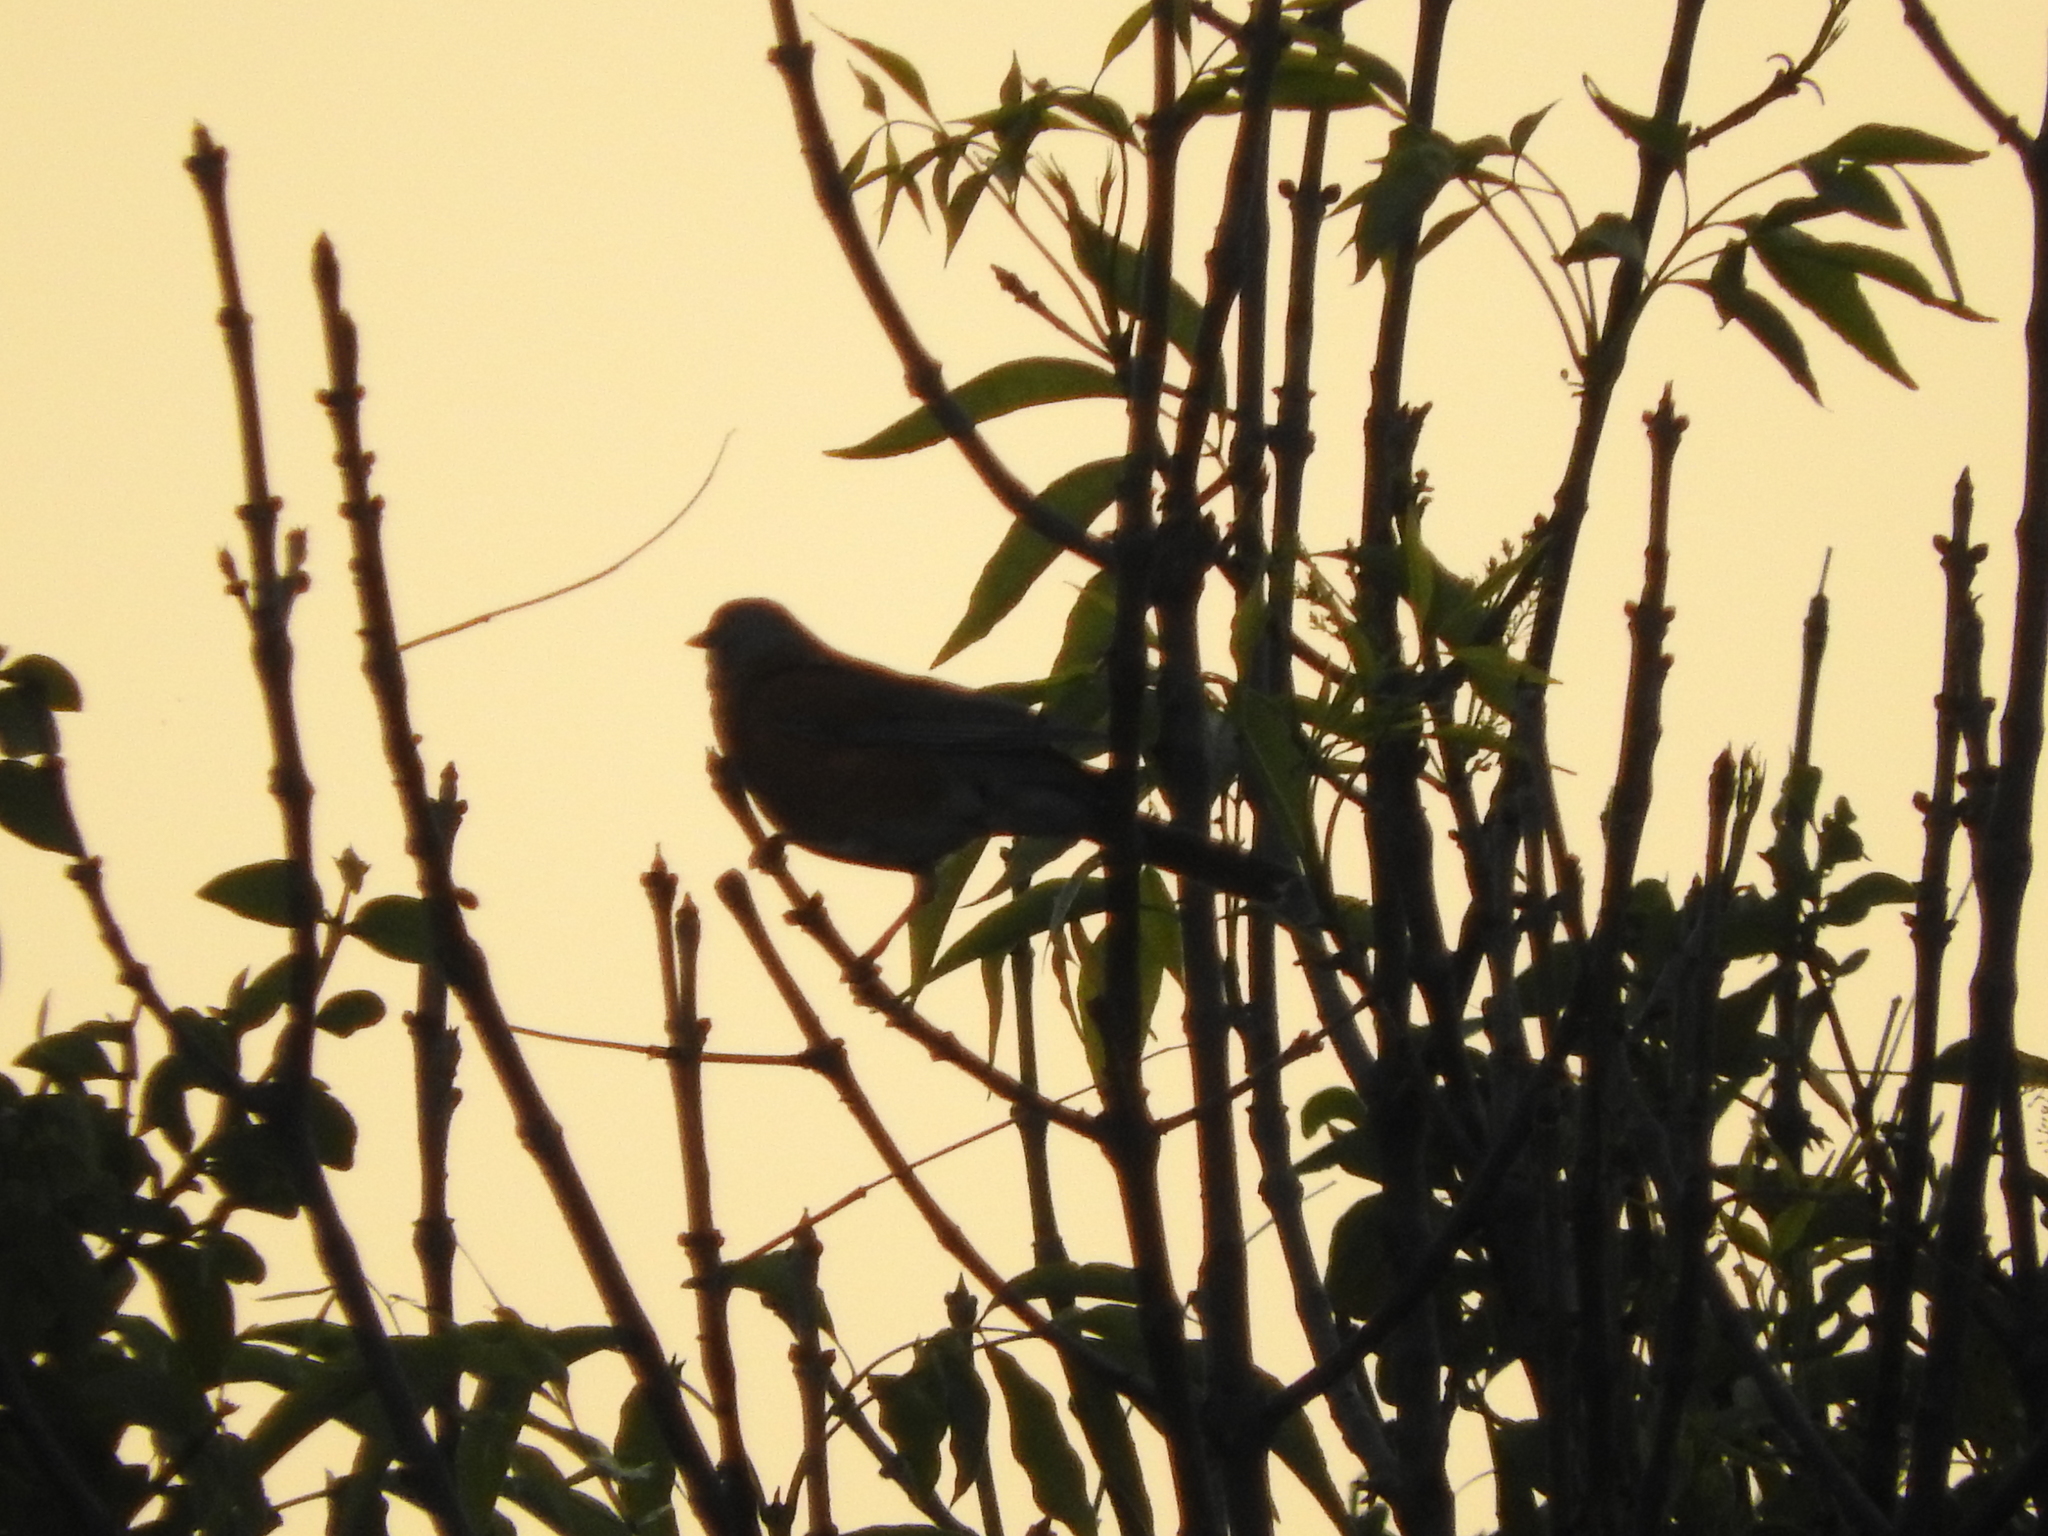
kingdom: Animalia
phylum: Chordata
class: Aves
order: Passeriformes
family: Turdidae
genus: Turdus
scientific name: Turdus rufopalliatus
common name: Rufous-backed robin
